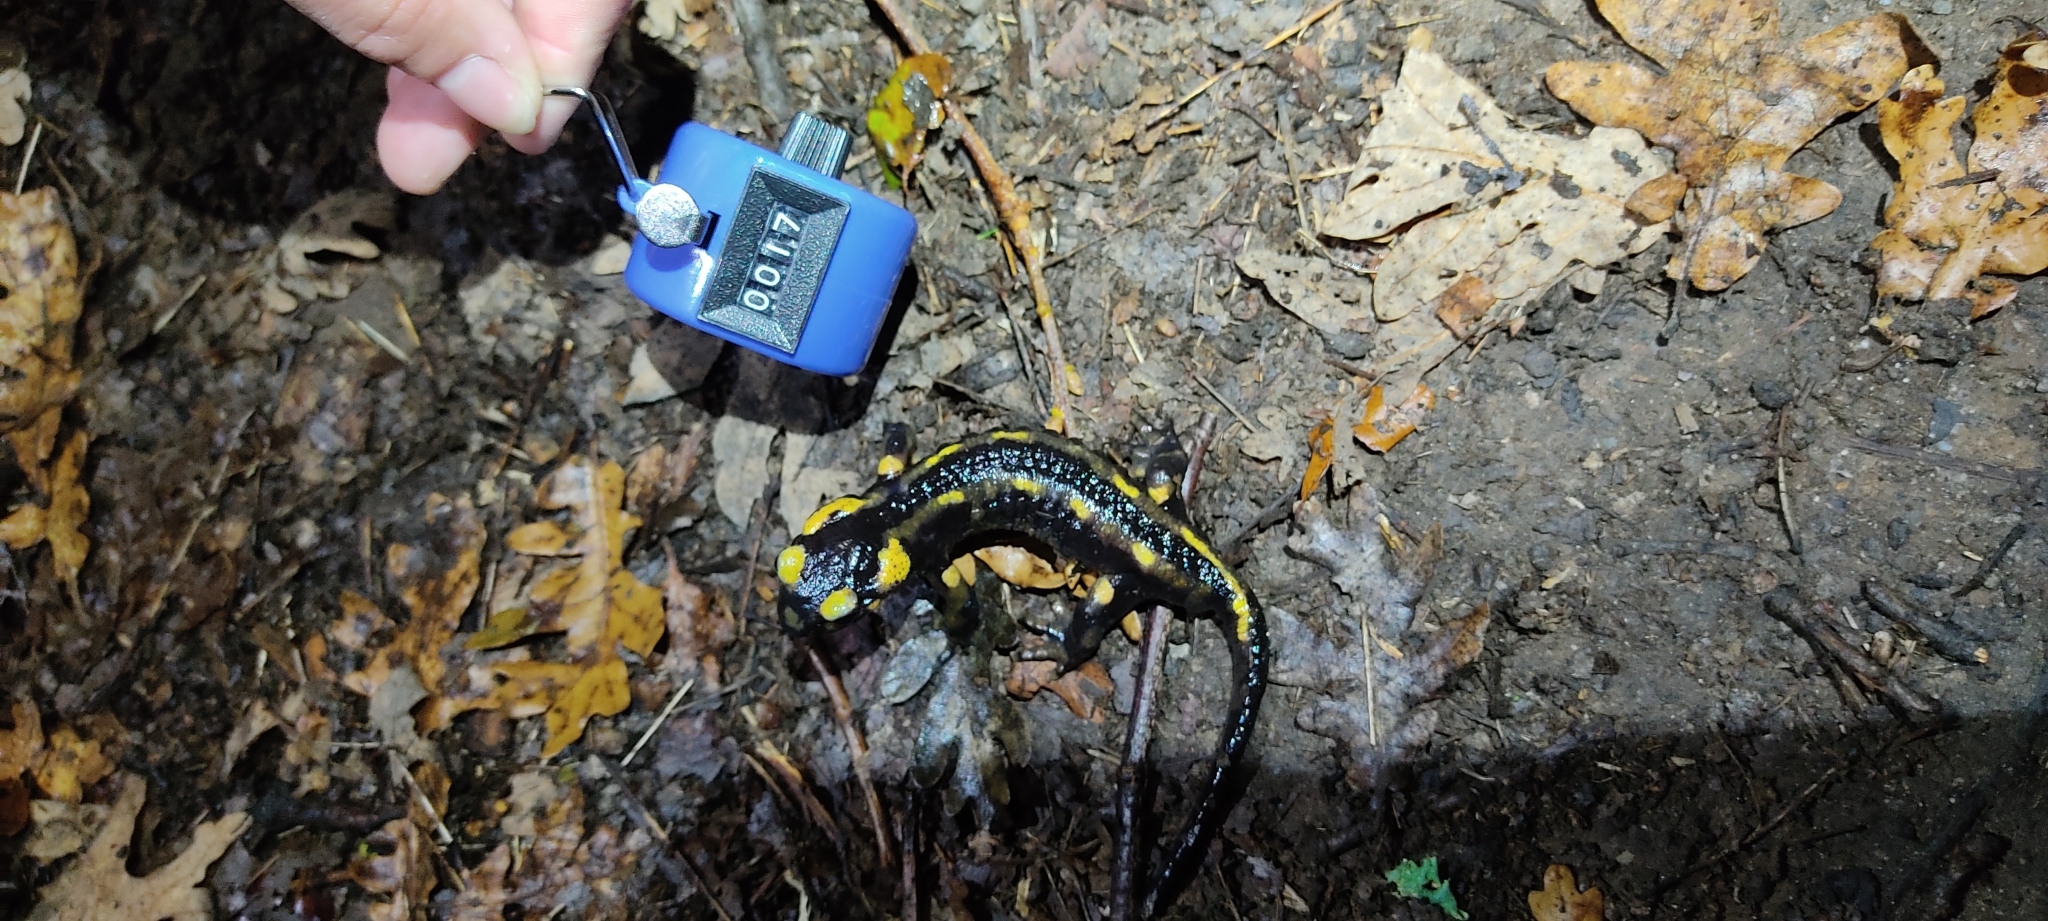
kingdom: Animalia
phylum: Chordata
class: Amphibia
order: Caudata
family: Salamandridae
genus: Salamandra
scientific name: Salamandra salamandra
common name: Fire salamander
